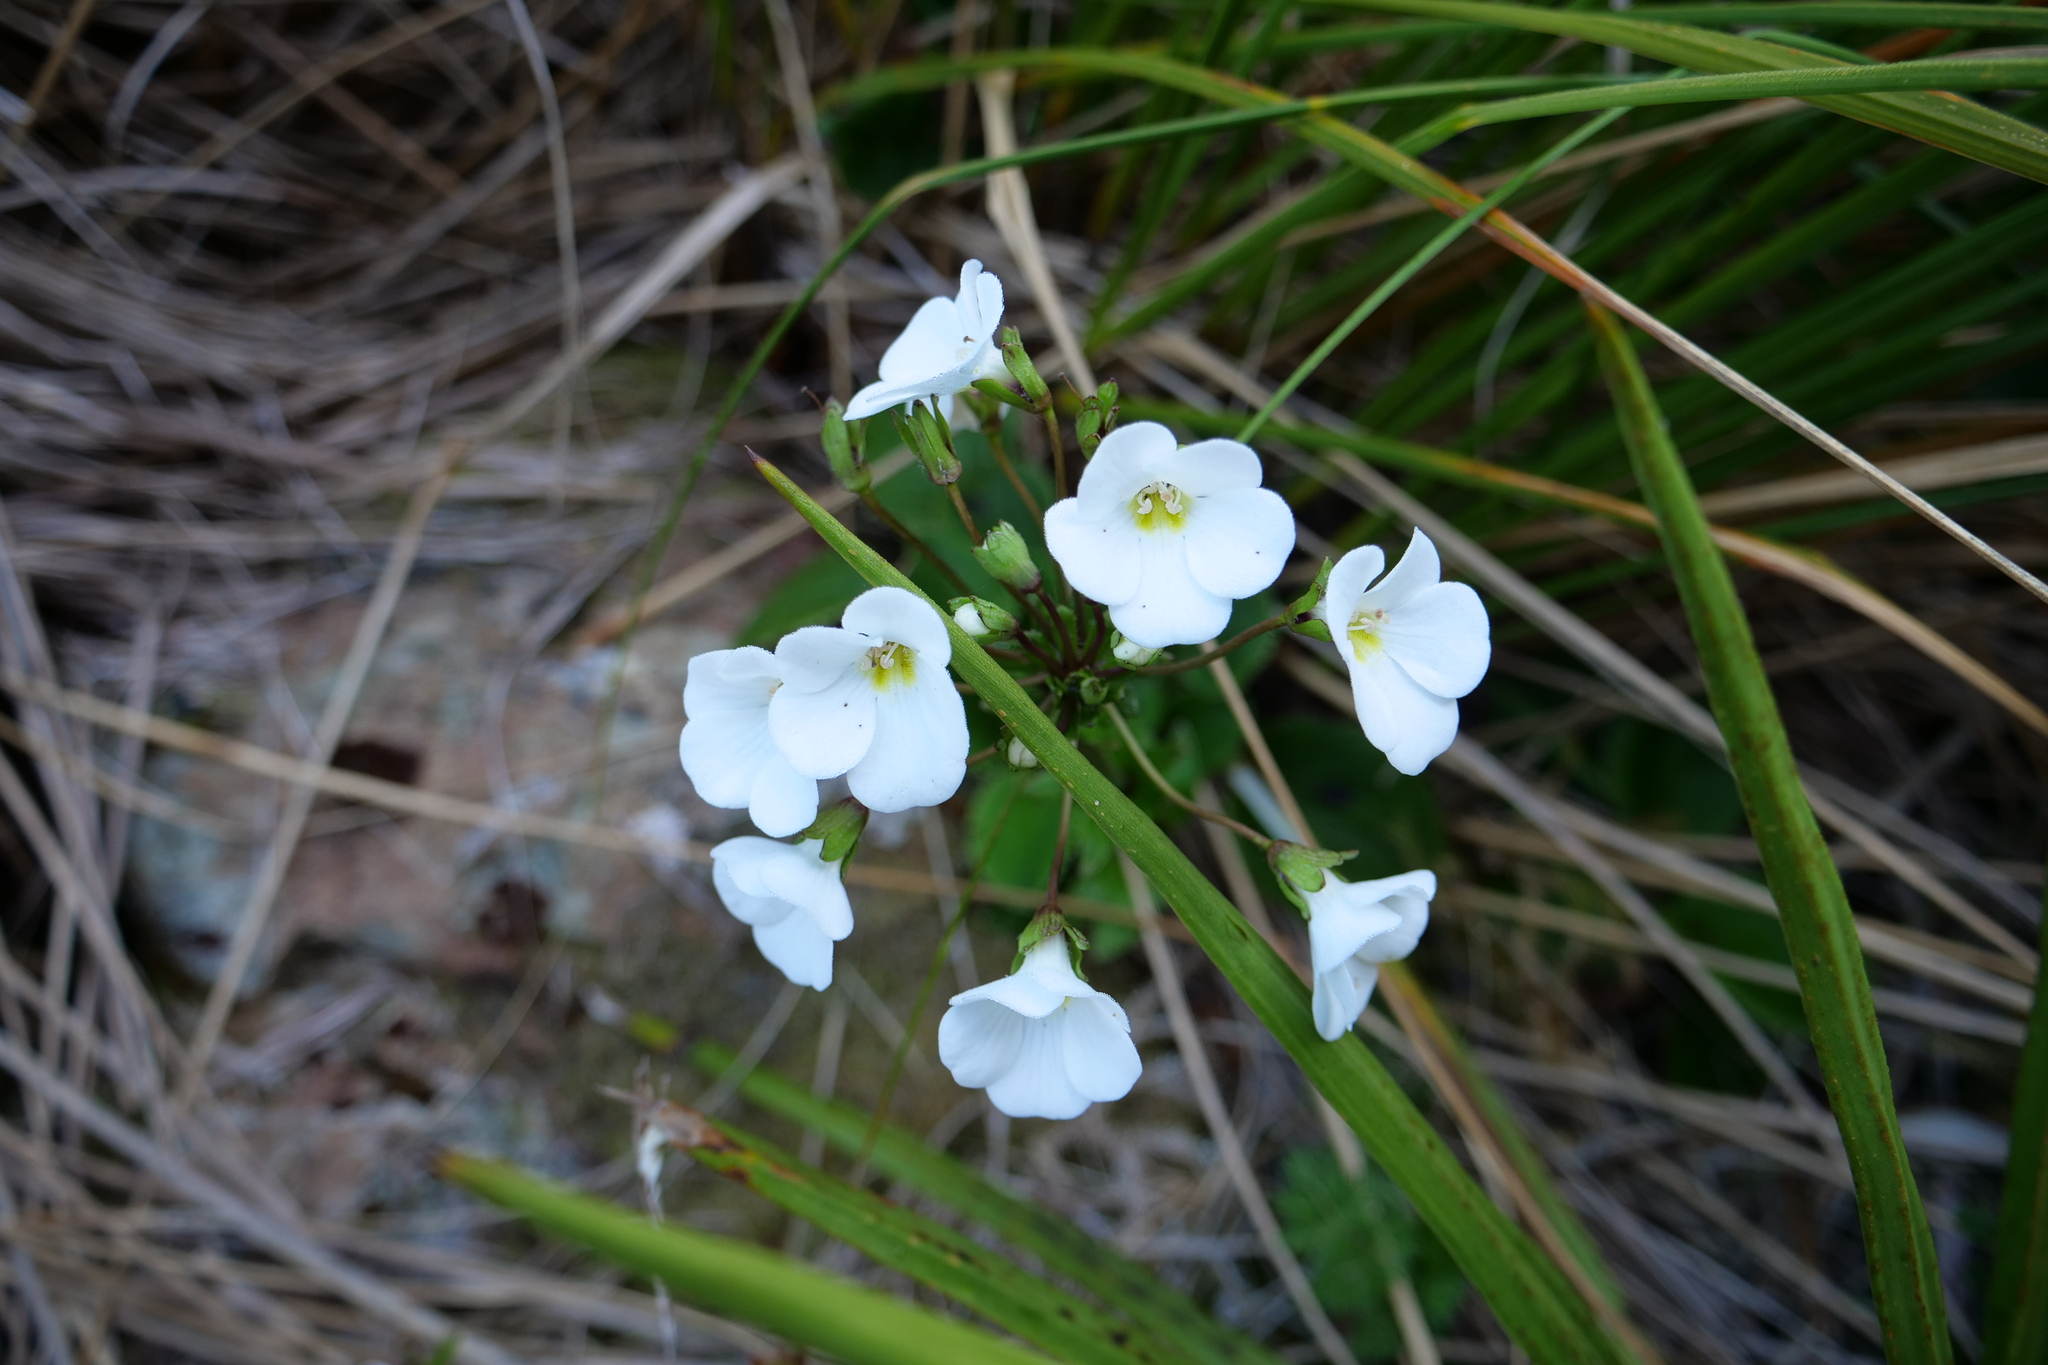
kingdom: Plantae
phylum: Tracheophyta
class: Magnoliopsida
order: Lamiales
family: Plantaginaceae
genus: Ourisia
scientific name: Ourisia macrocarpa
